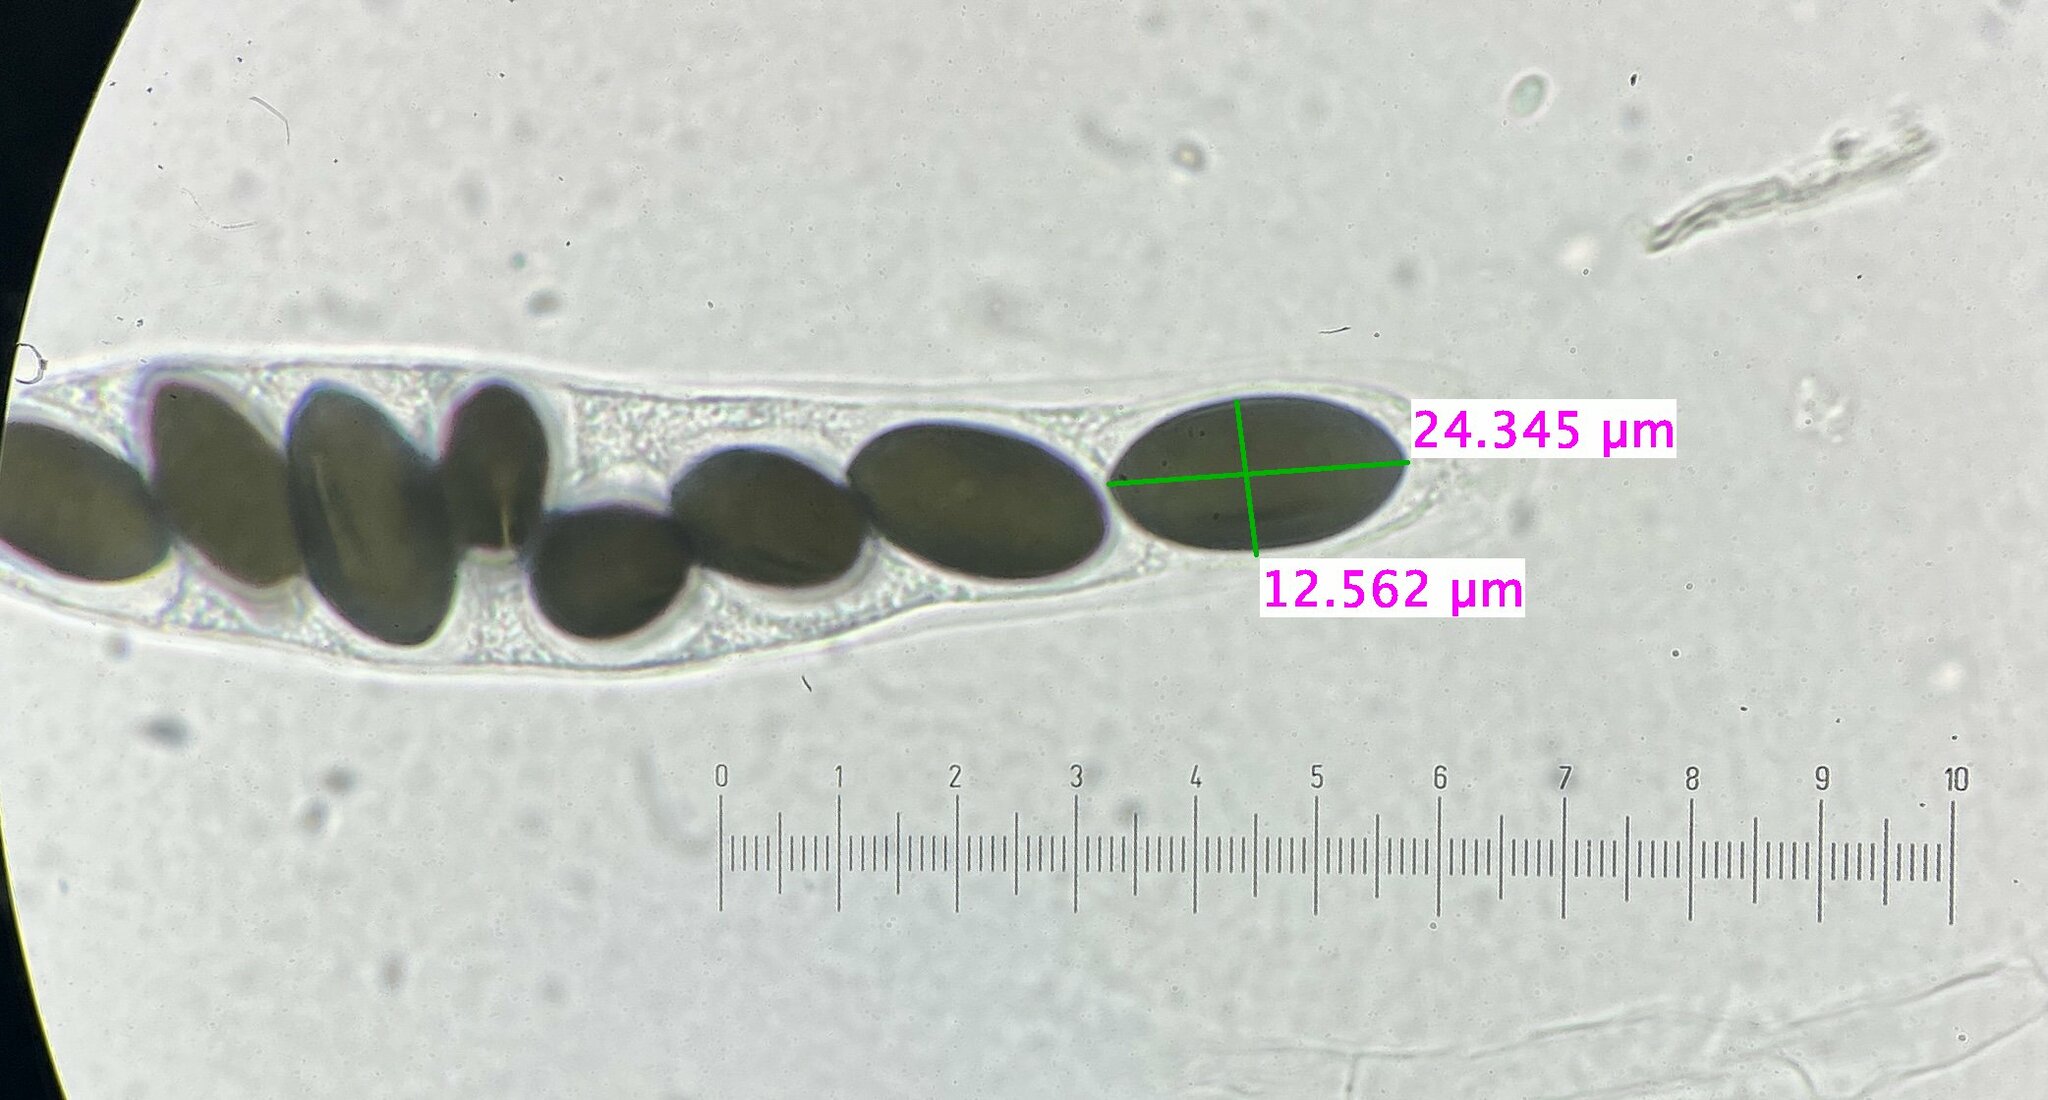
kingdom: Fungi
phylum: Ascomycota
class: Sordariomycetes
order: Xylariales
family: Xylariaceae
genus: Poronia
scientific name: Poronia erici
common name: Dung button
